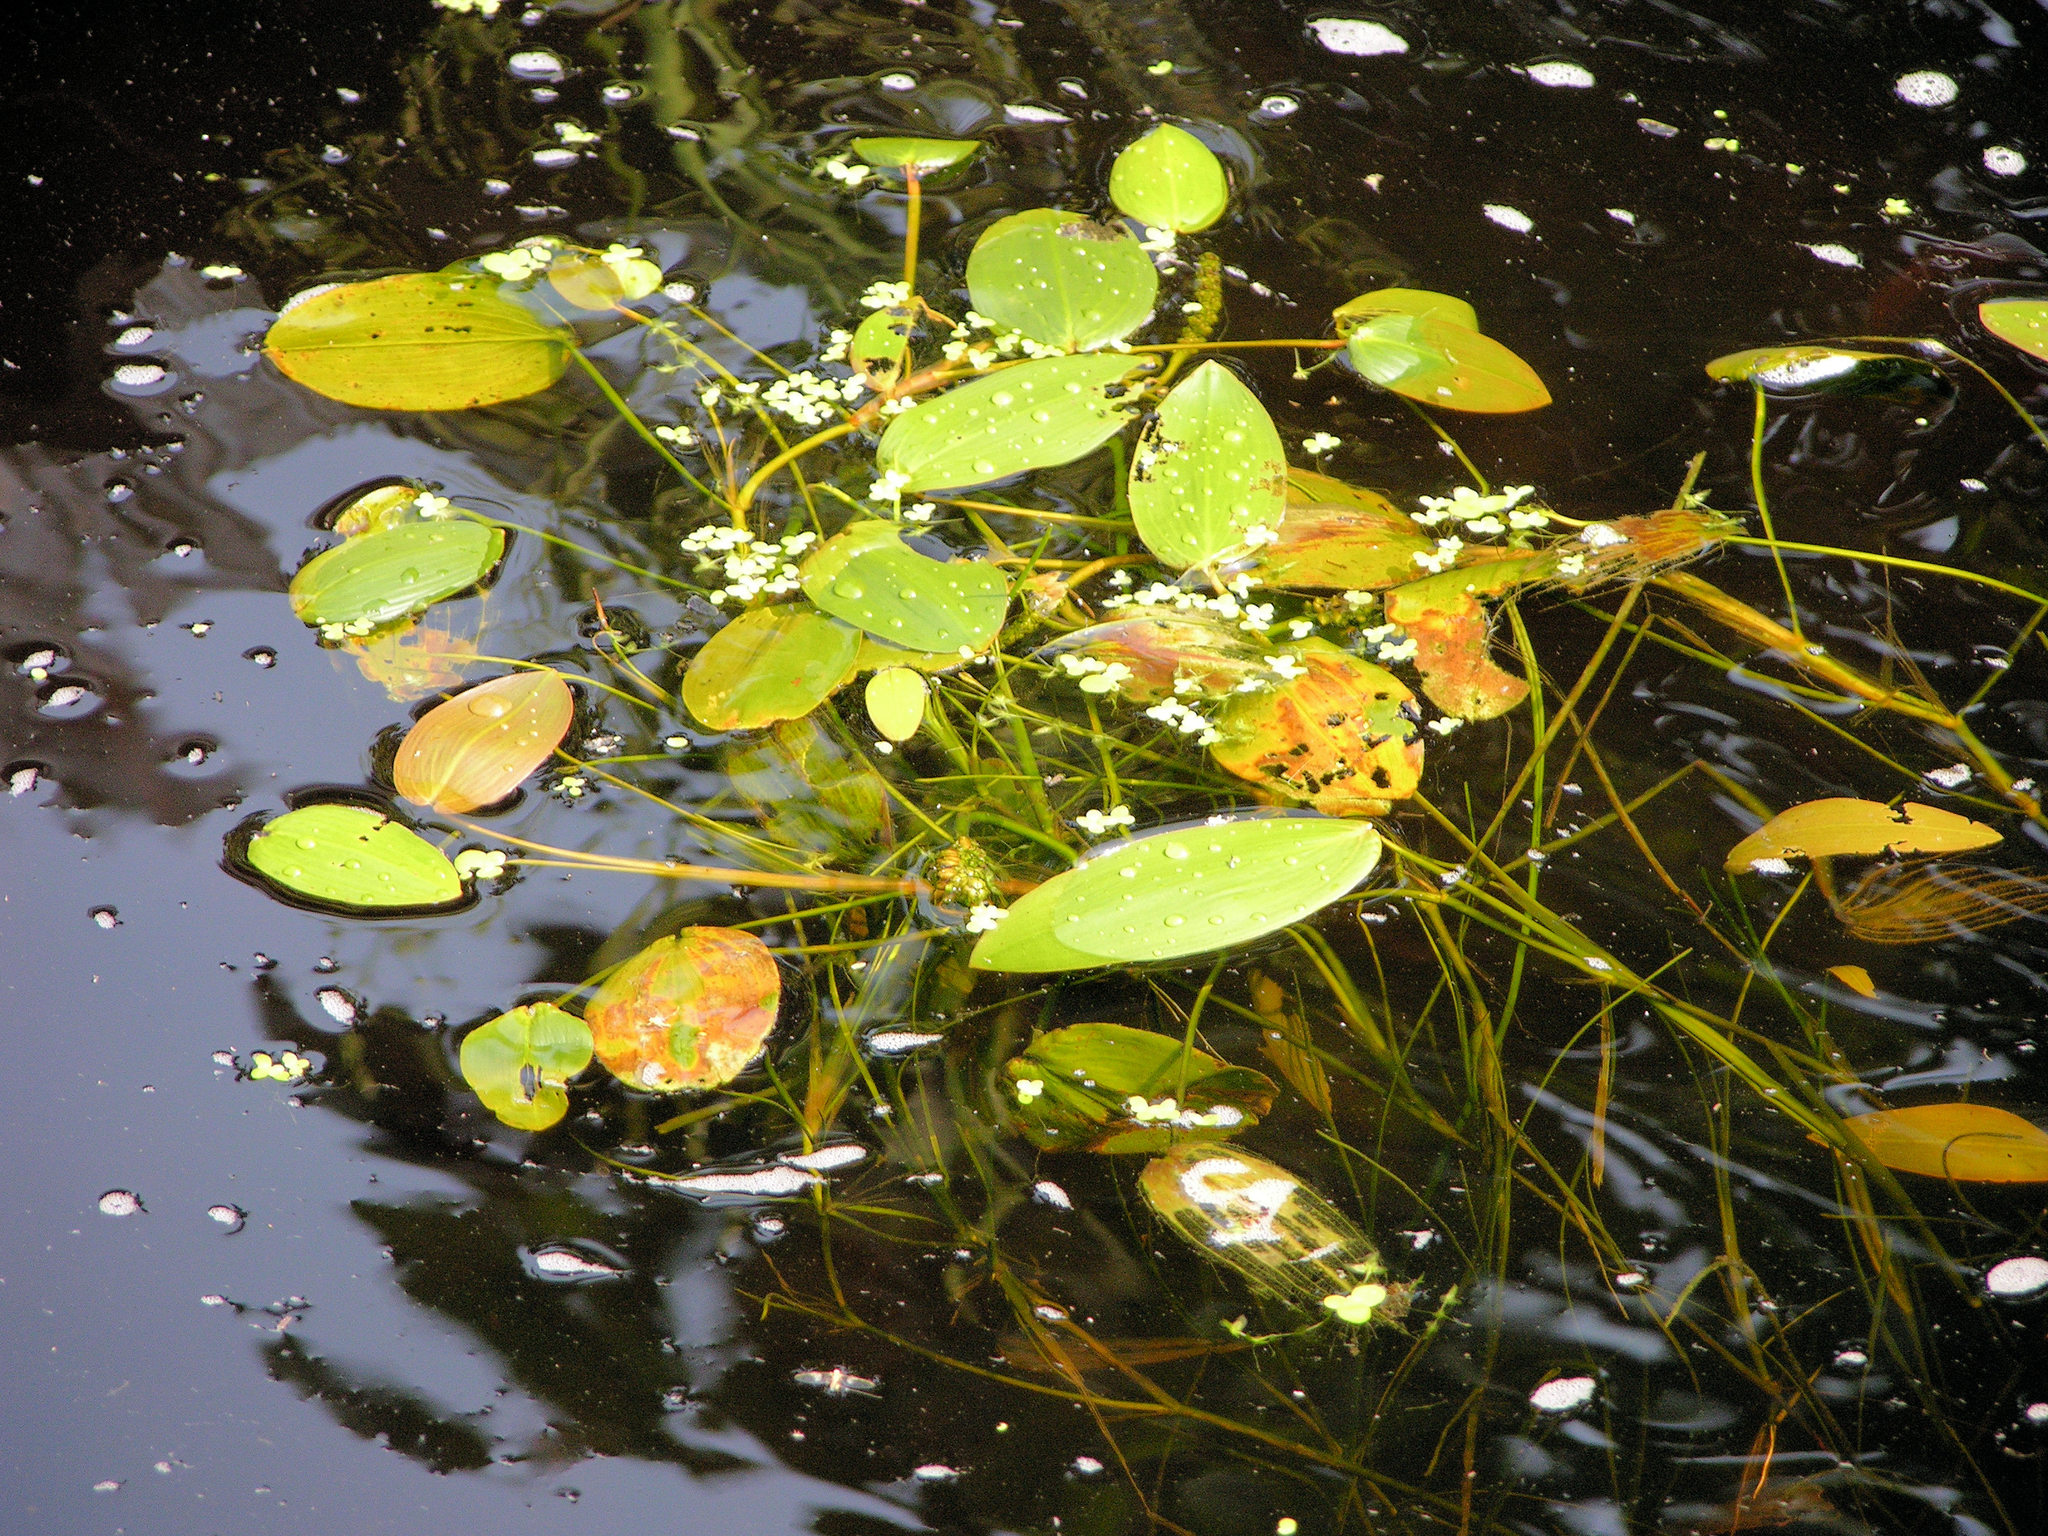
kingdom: Plantae
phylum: Tracheophyta
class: Liliopsida
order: Alismatales
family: Potamogetonaceae
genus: Potamogeton
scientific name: Potamogeton natans
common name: Broad-leaved pondweed
